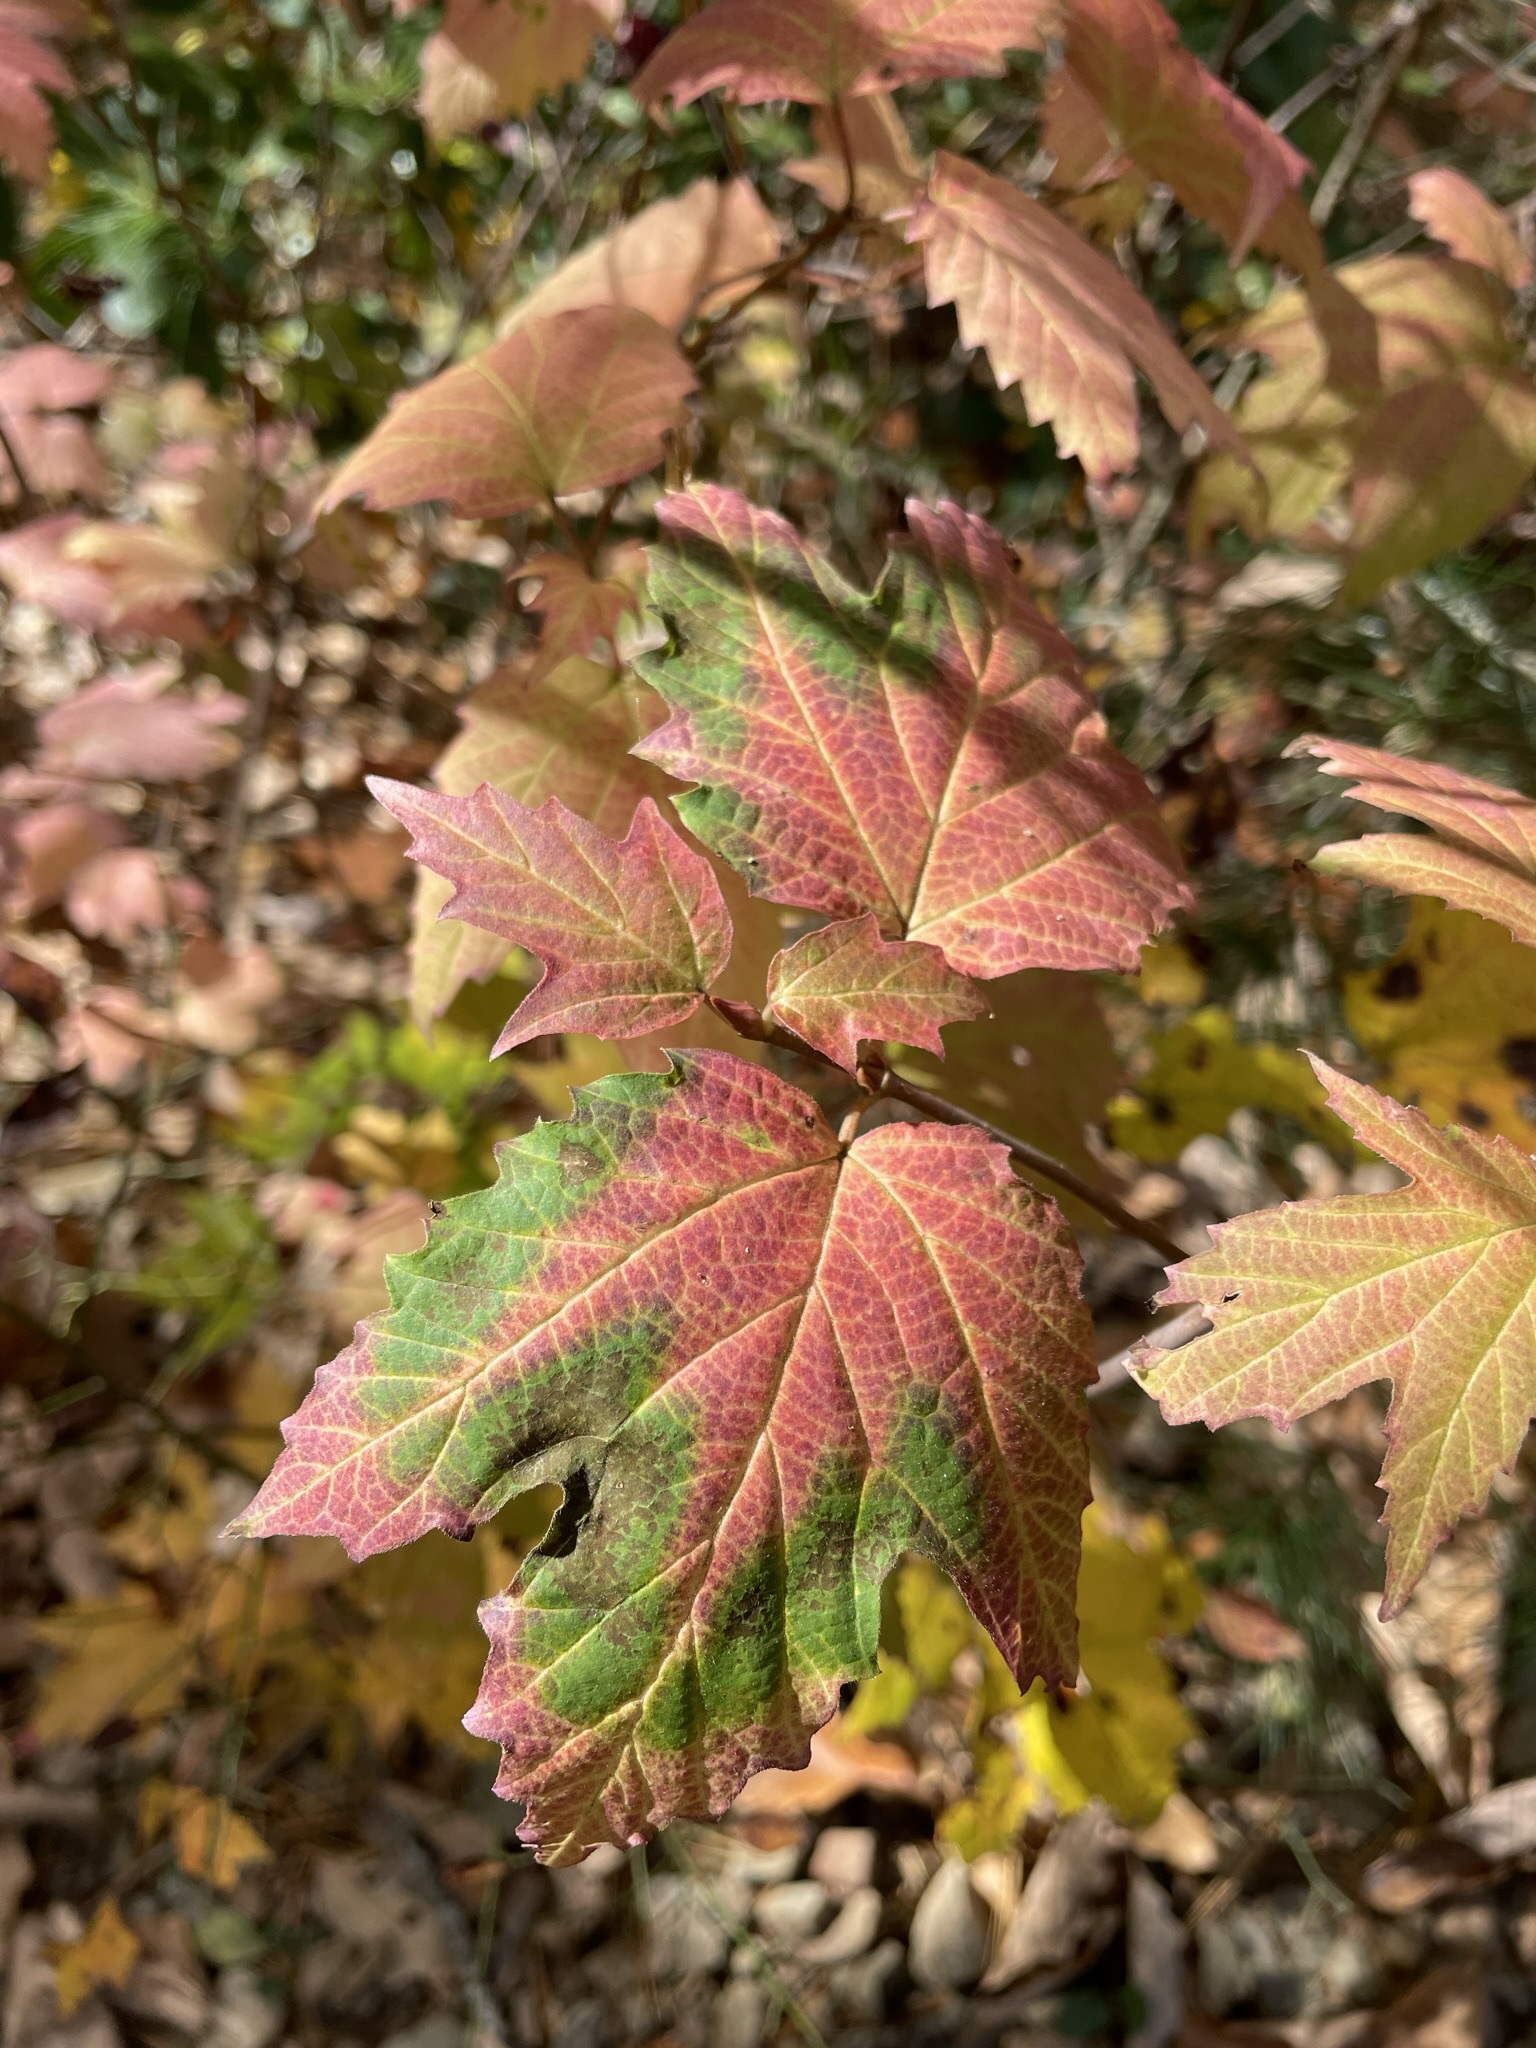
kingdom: Plantae
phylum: Tracheophyta
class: Magnoliopsida
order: Dipsacales
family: Viburnaceae
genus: Viburnum
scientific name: Viburnum acerifolium
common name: Dockmackie
